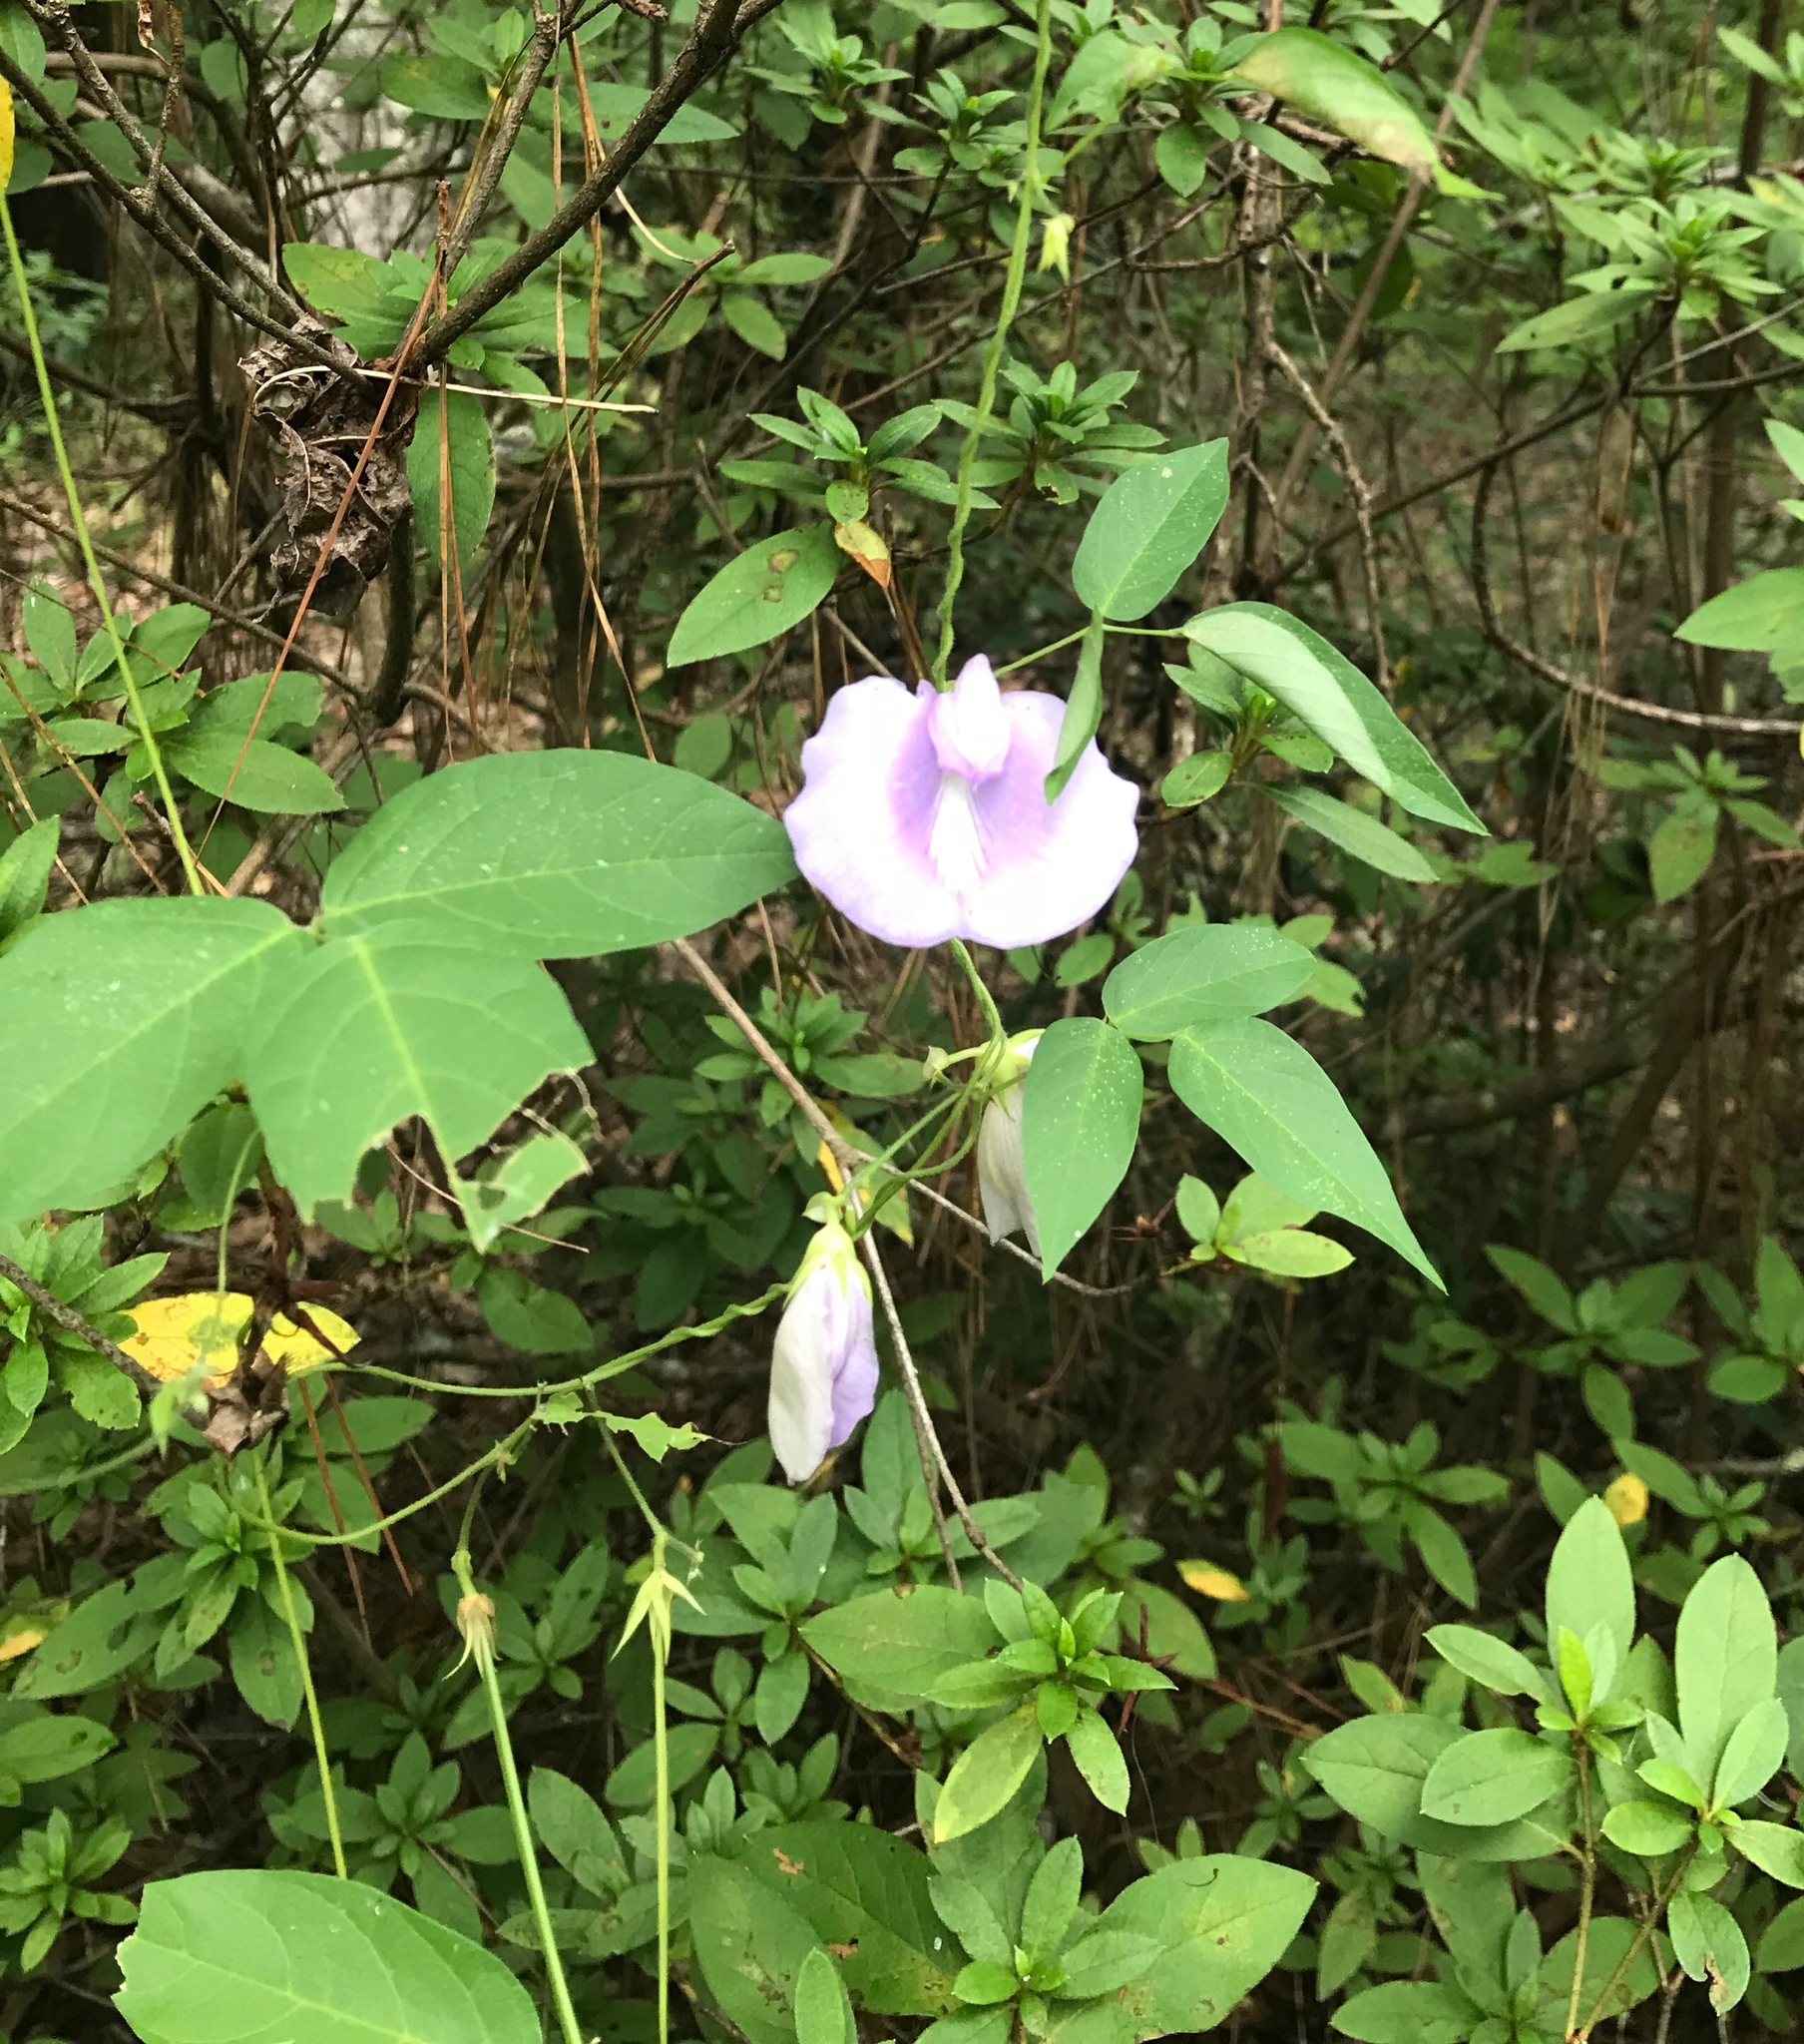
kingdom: Plantae
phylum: Tracheophyta
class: Magnoliopsida
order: Fabales
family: Fabaceae
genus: Centrosema
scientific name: Centrosema virginianum
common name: Butterfly-pea
